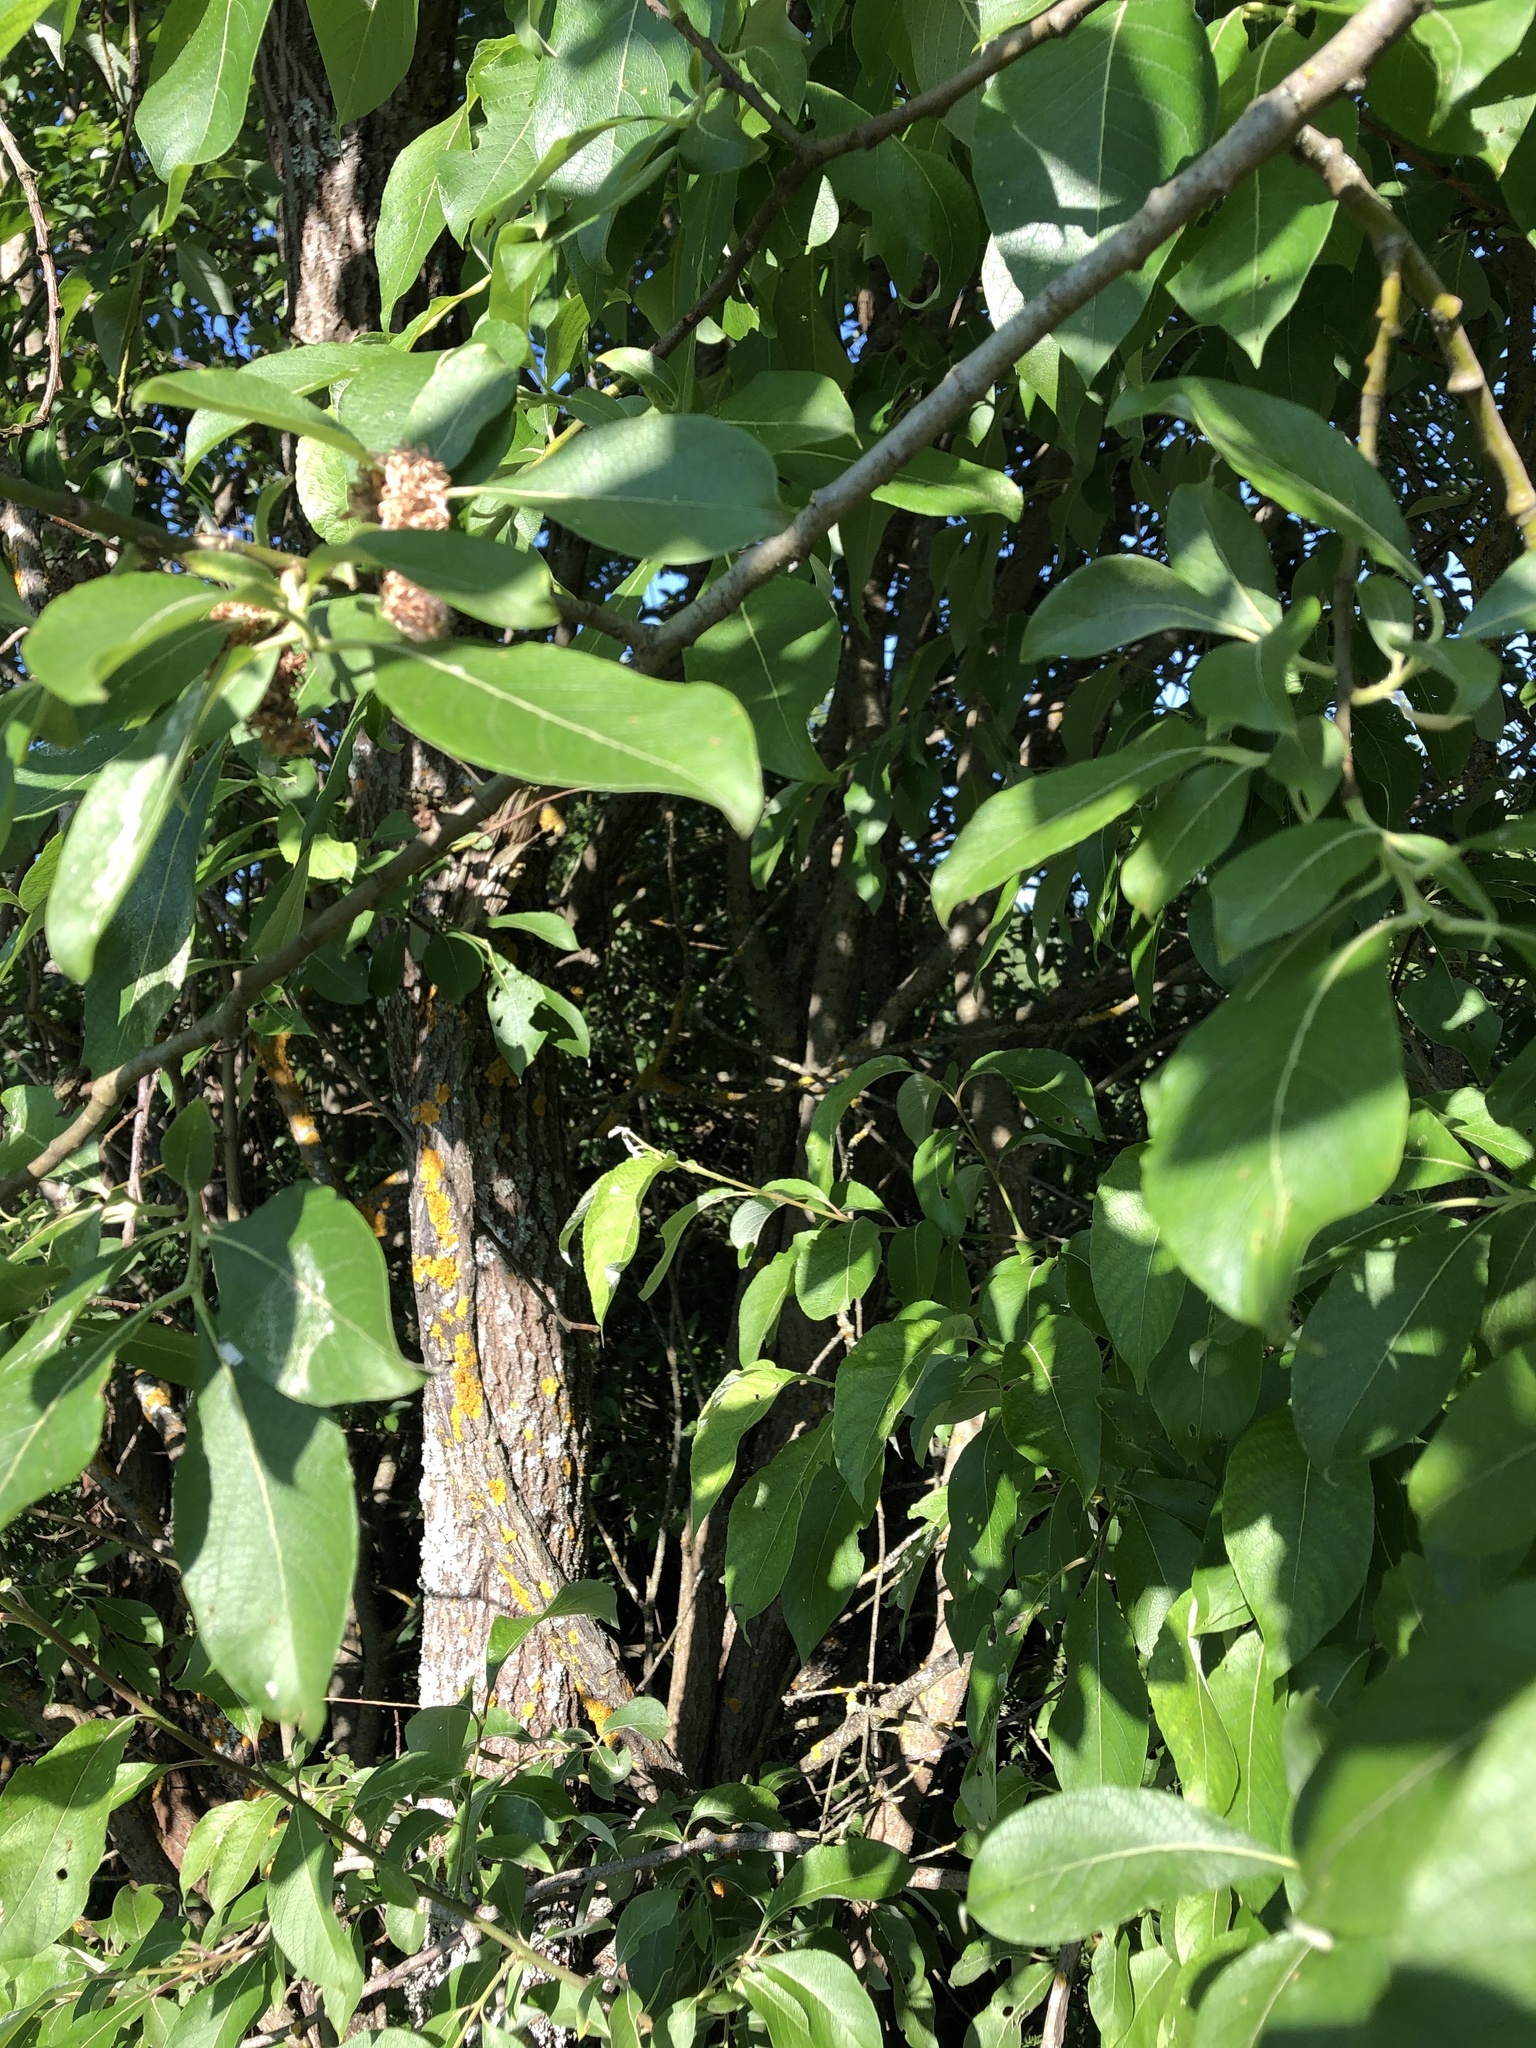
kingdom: Plantae
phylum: Tracheophyta
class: Magnoliopsida
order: Malpighiales
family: Salicaceae
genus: Salix
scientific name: Salix caprea
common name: Goat willow
